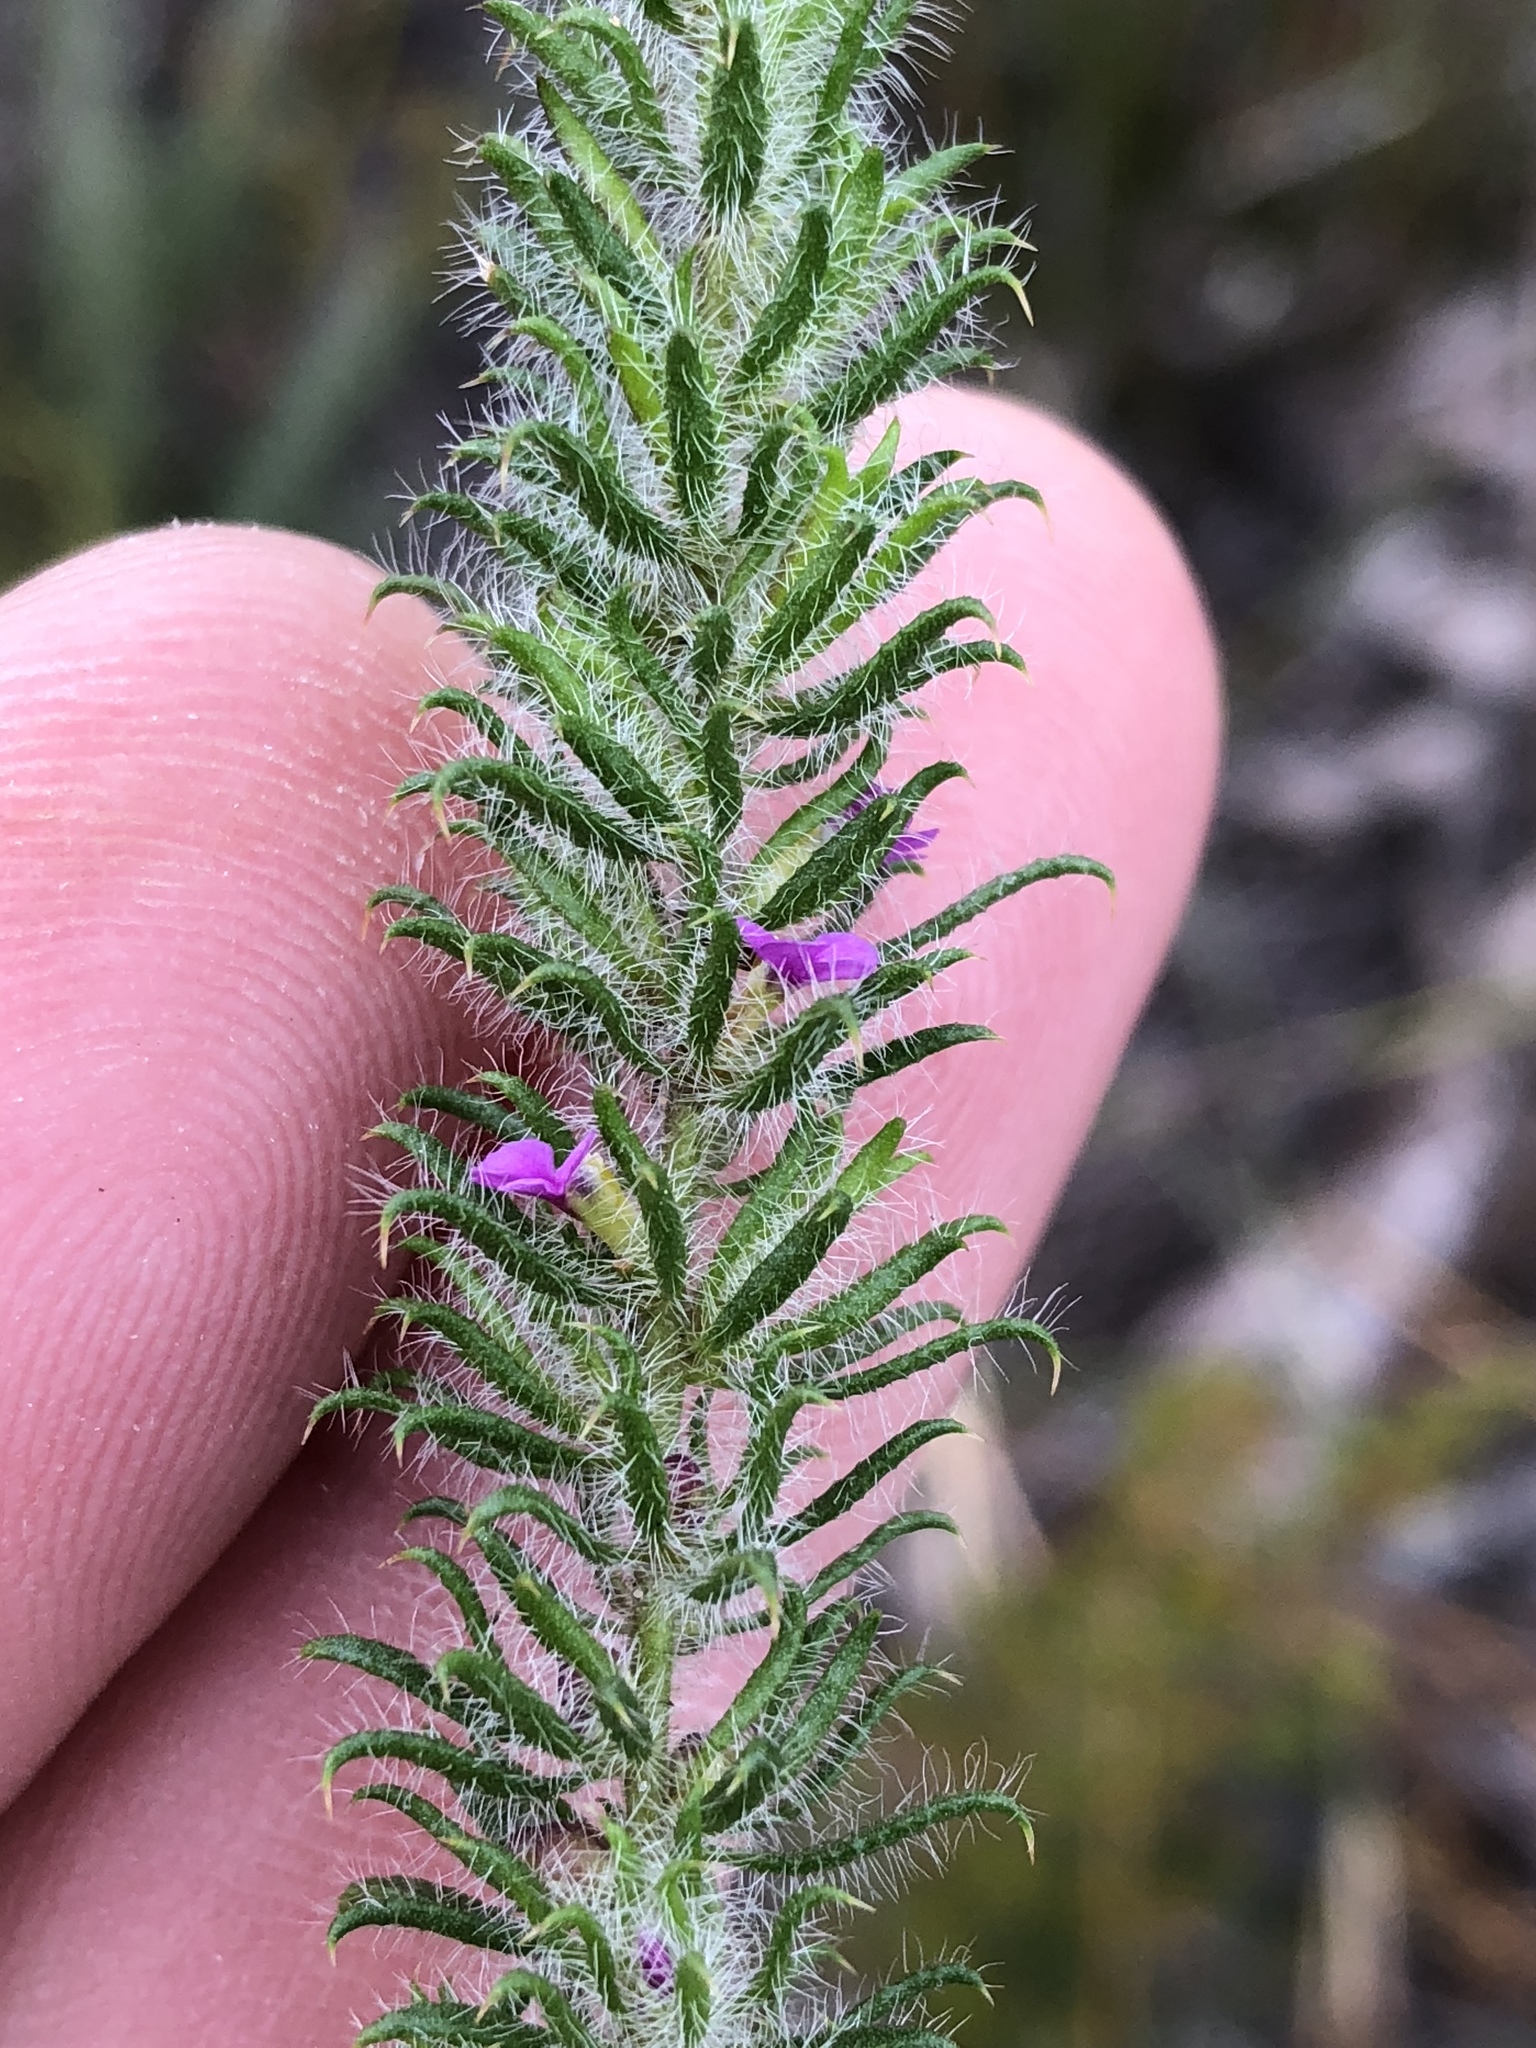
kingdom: Plantae
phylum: Tracheophyta
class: Magnoliopsida
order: Fabales
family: Polygalaceae
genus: Muraltia
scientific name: Muraltia ciliaris
